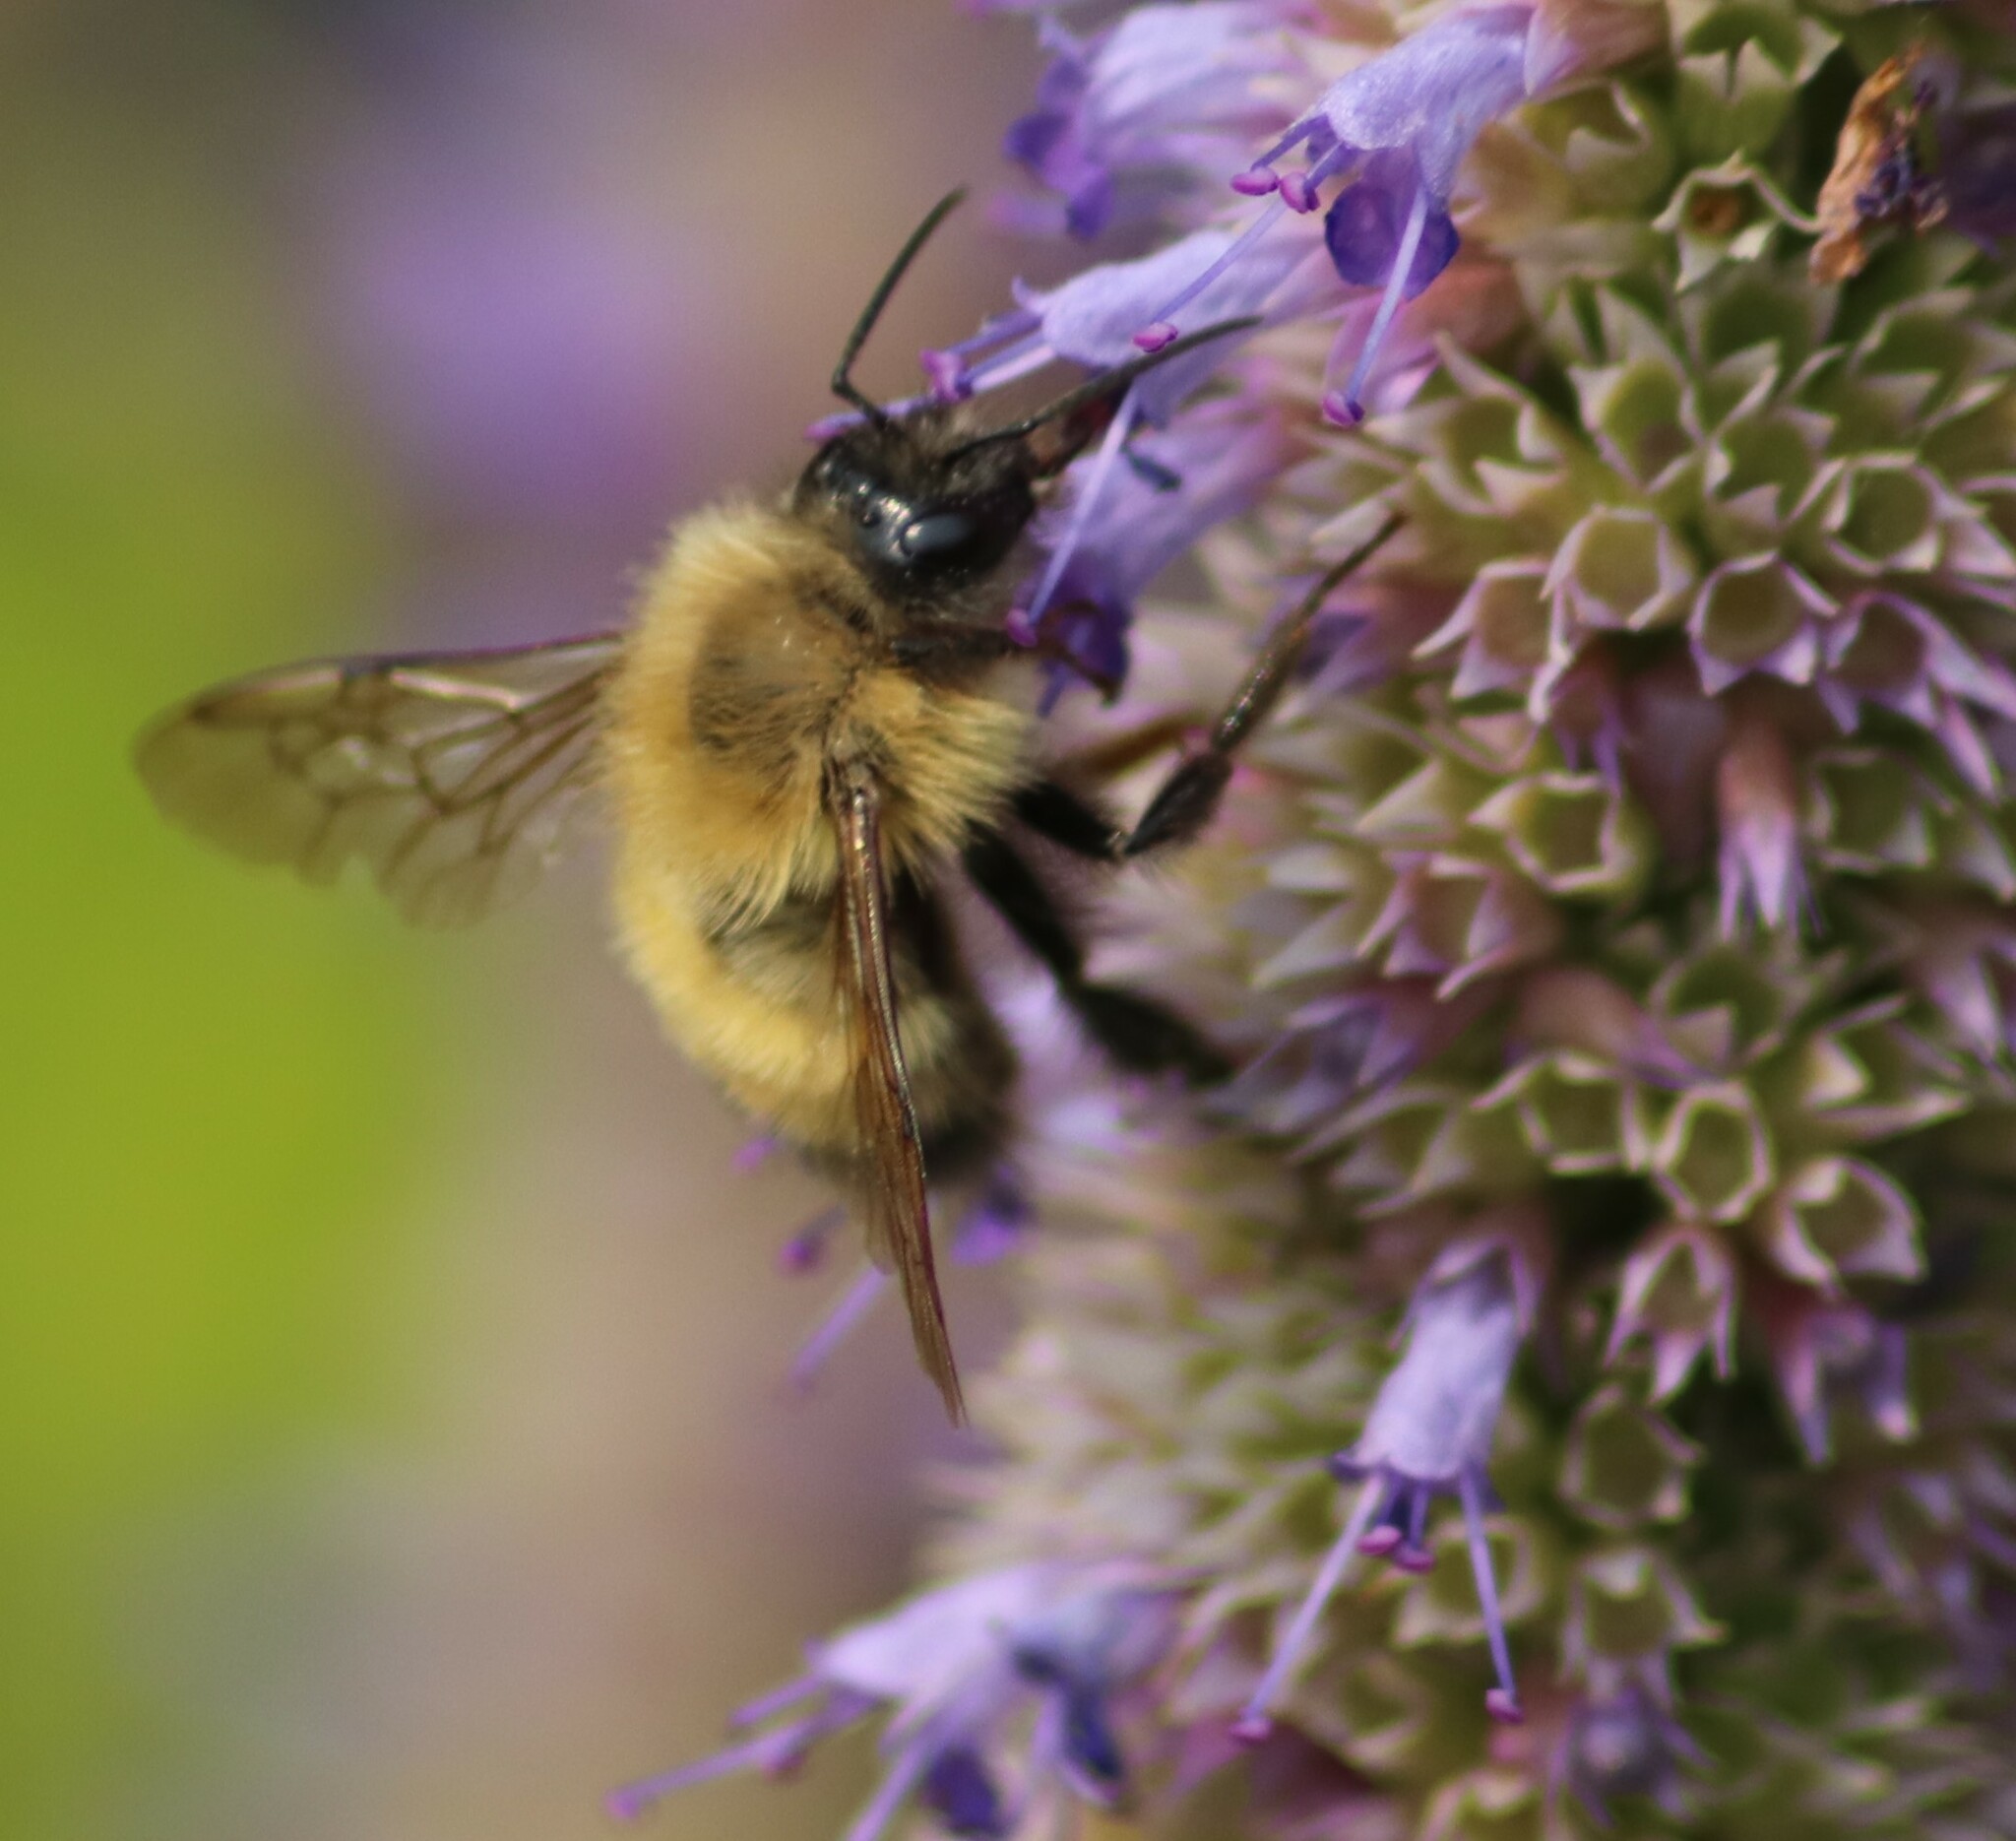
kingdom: Animalia
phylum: Arthropoda
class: Insecta
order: Hymenoptera
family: Apidae
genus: Bombus
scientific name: Bombus perplexus
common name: Confusing bumble bee
